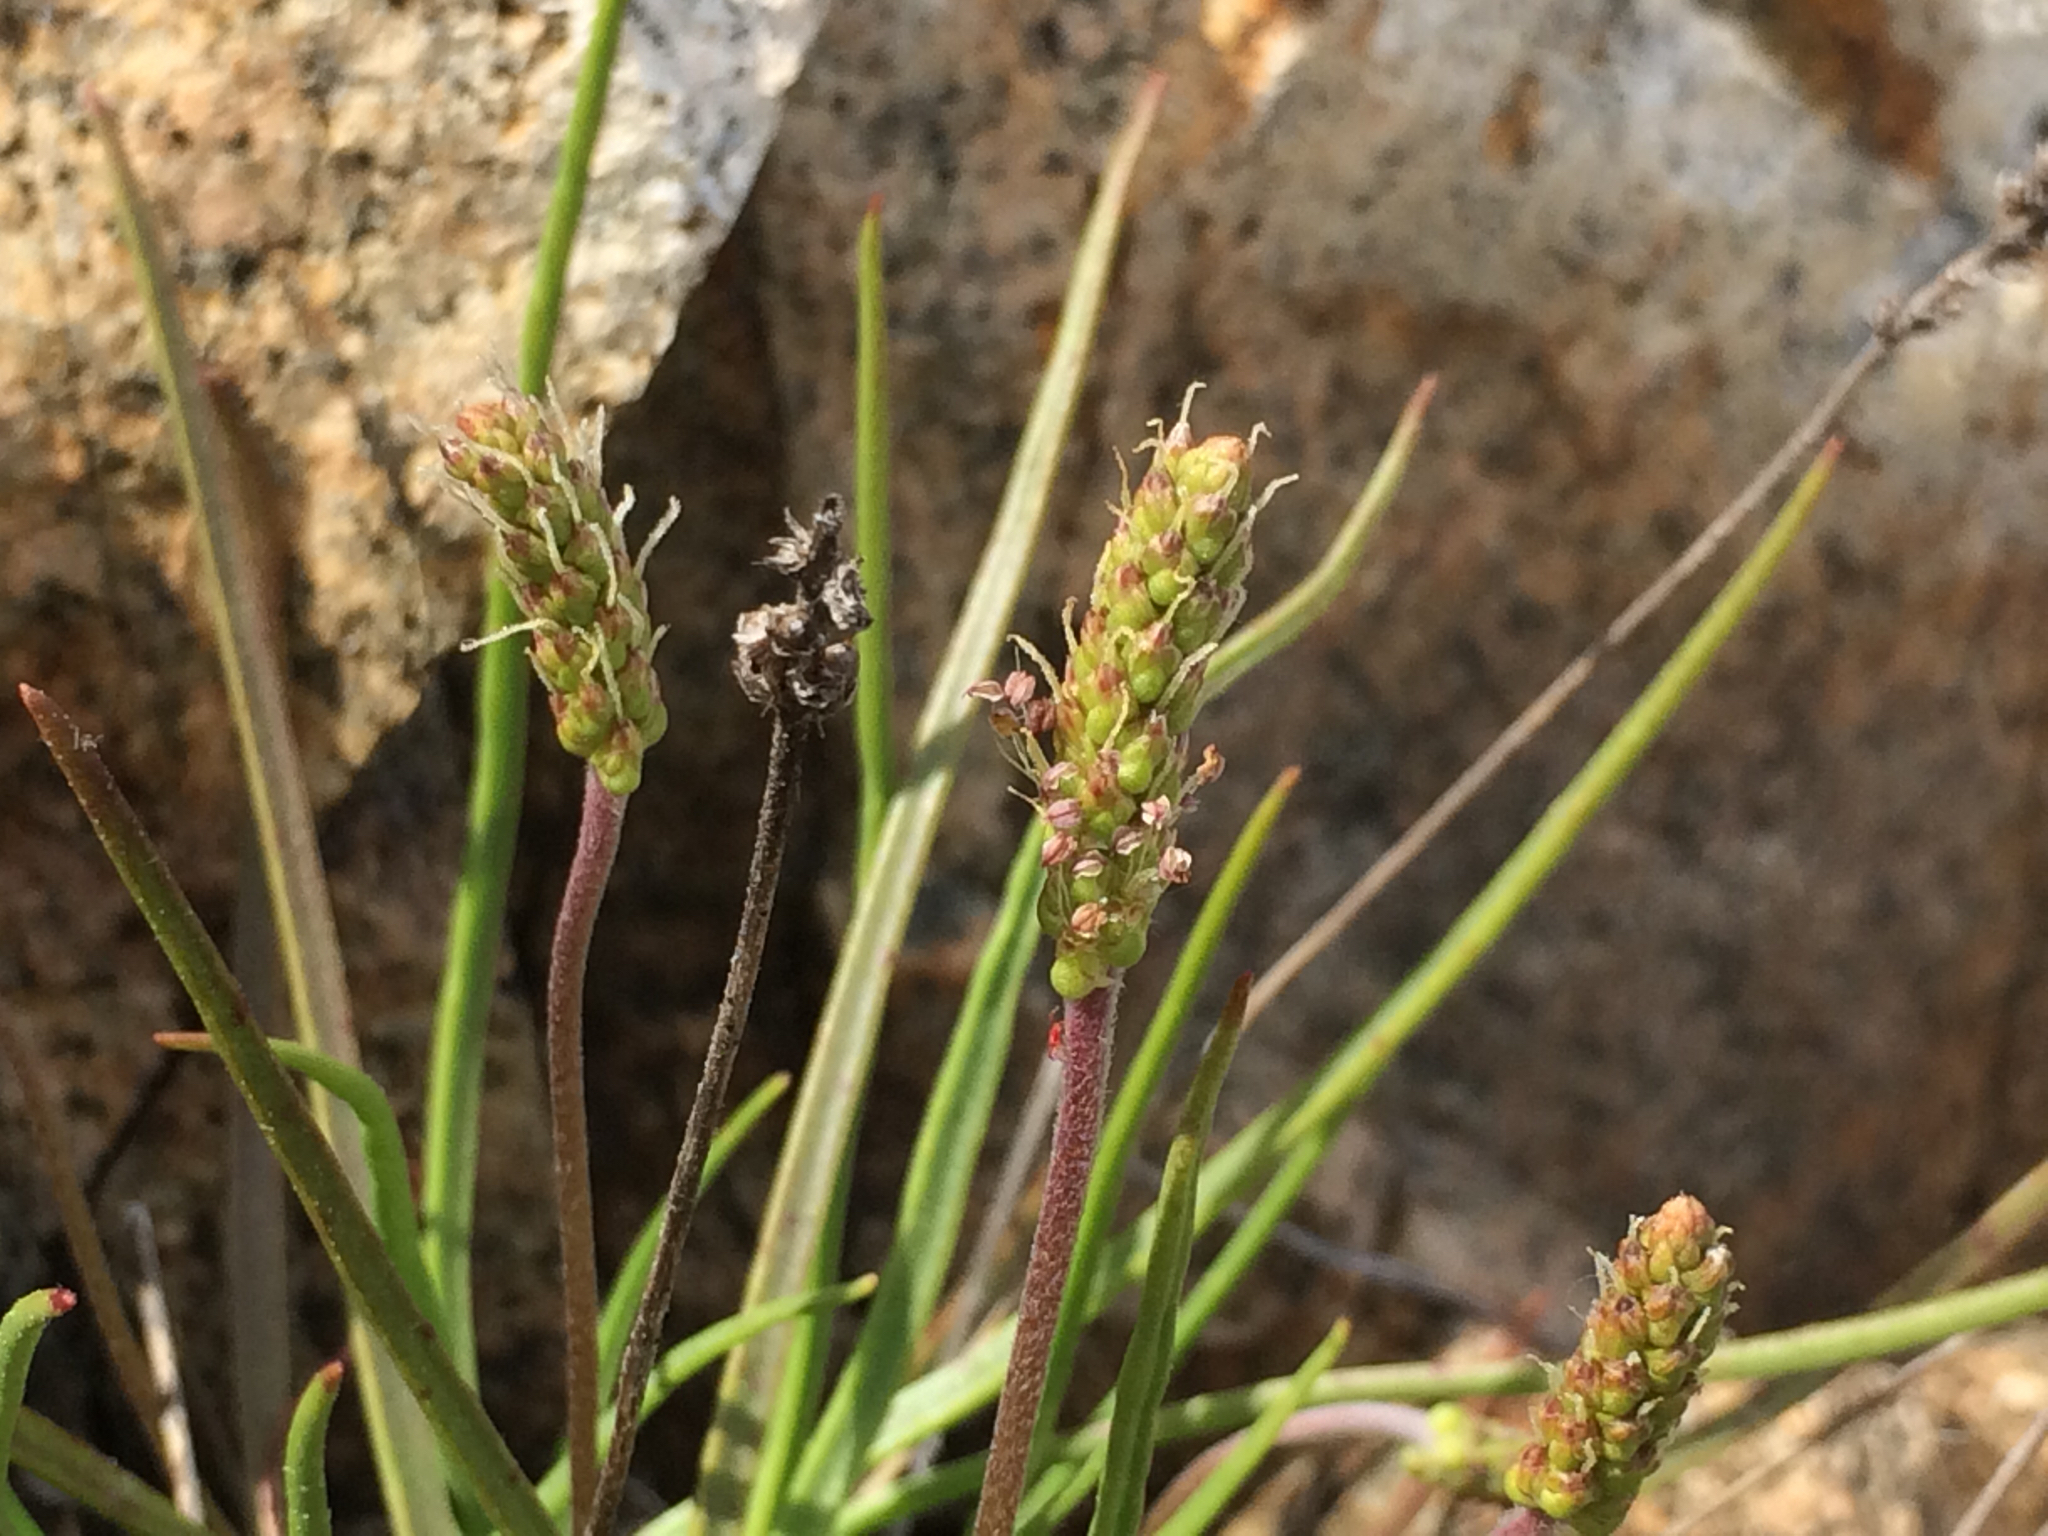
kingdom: Plantae
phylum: Tracheophyta
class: Magnoliopsida
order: Lamiales
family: Plantaginaceae
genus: Plantago
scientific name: Plantago maritima
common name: Sea plantain
